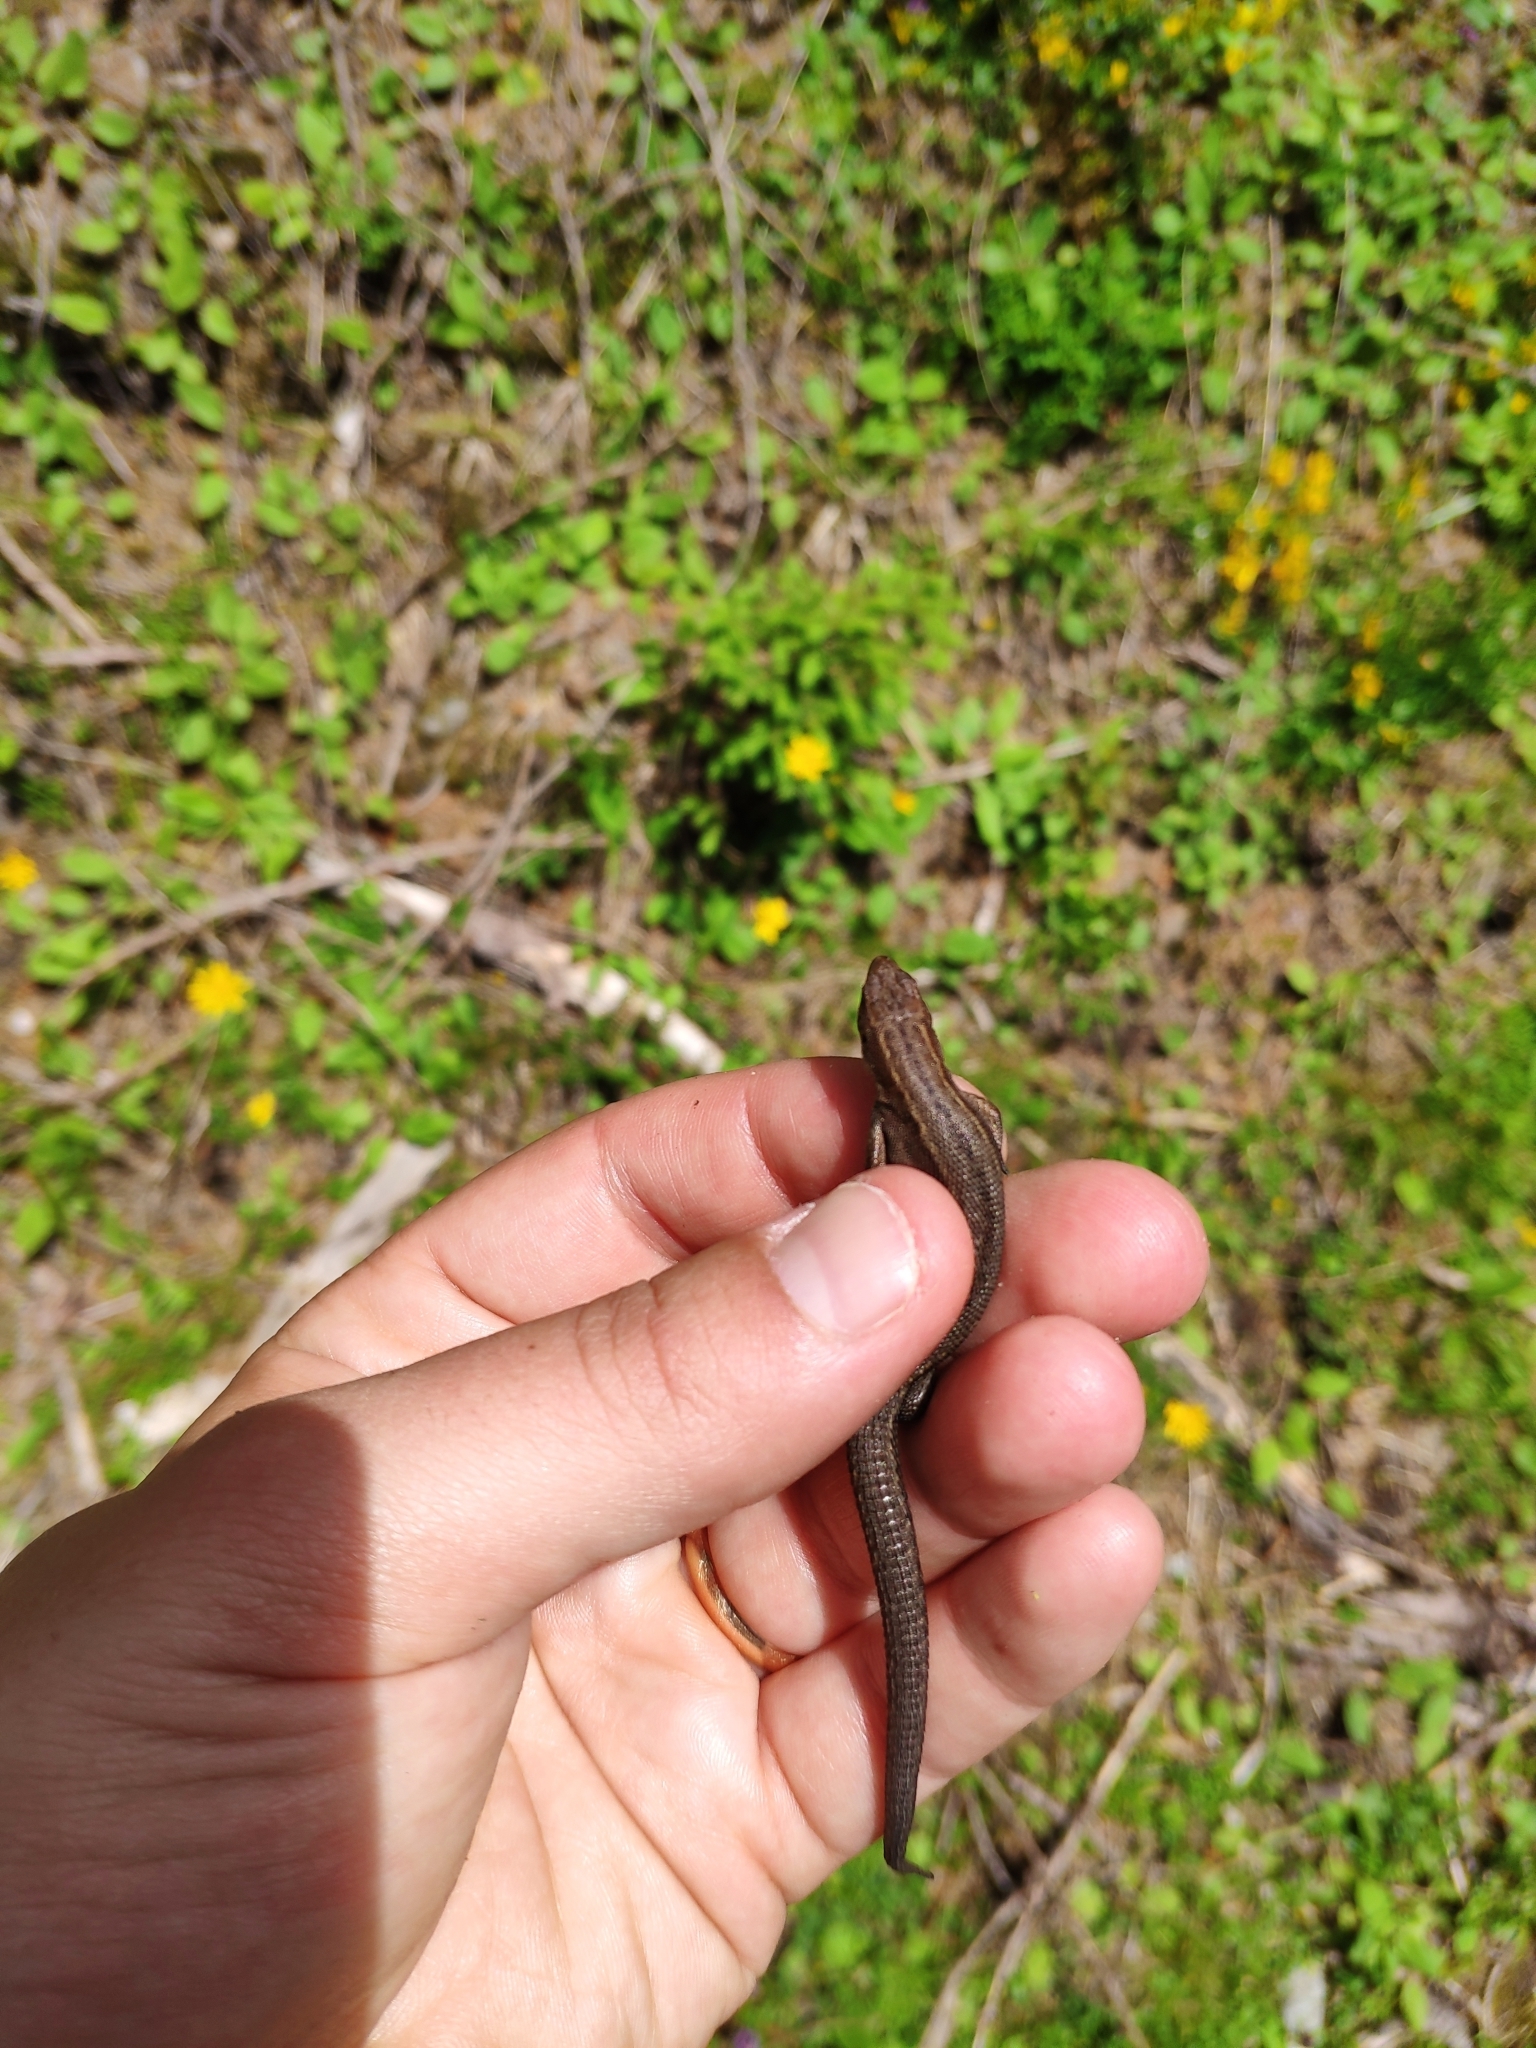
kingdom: Animalia
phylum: Chordata
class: Squamata
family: Lacertidae
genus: Zootoca
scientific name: Zootoca vivipara
